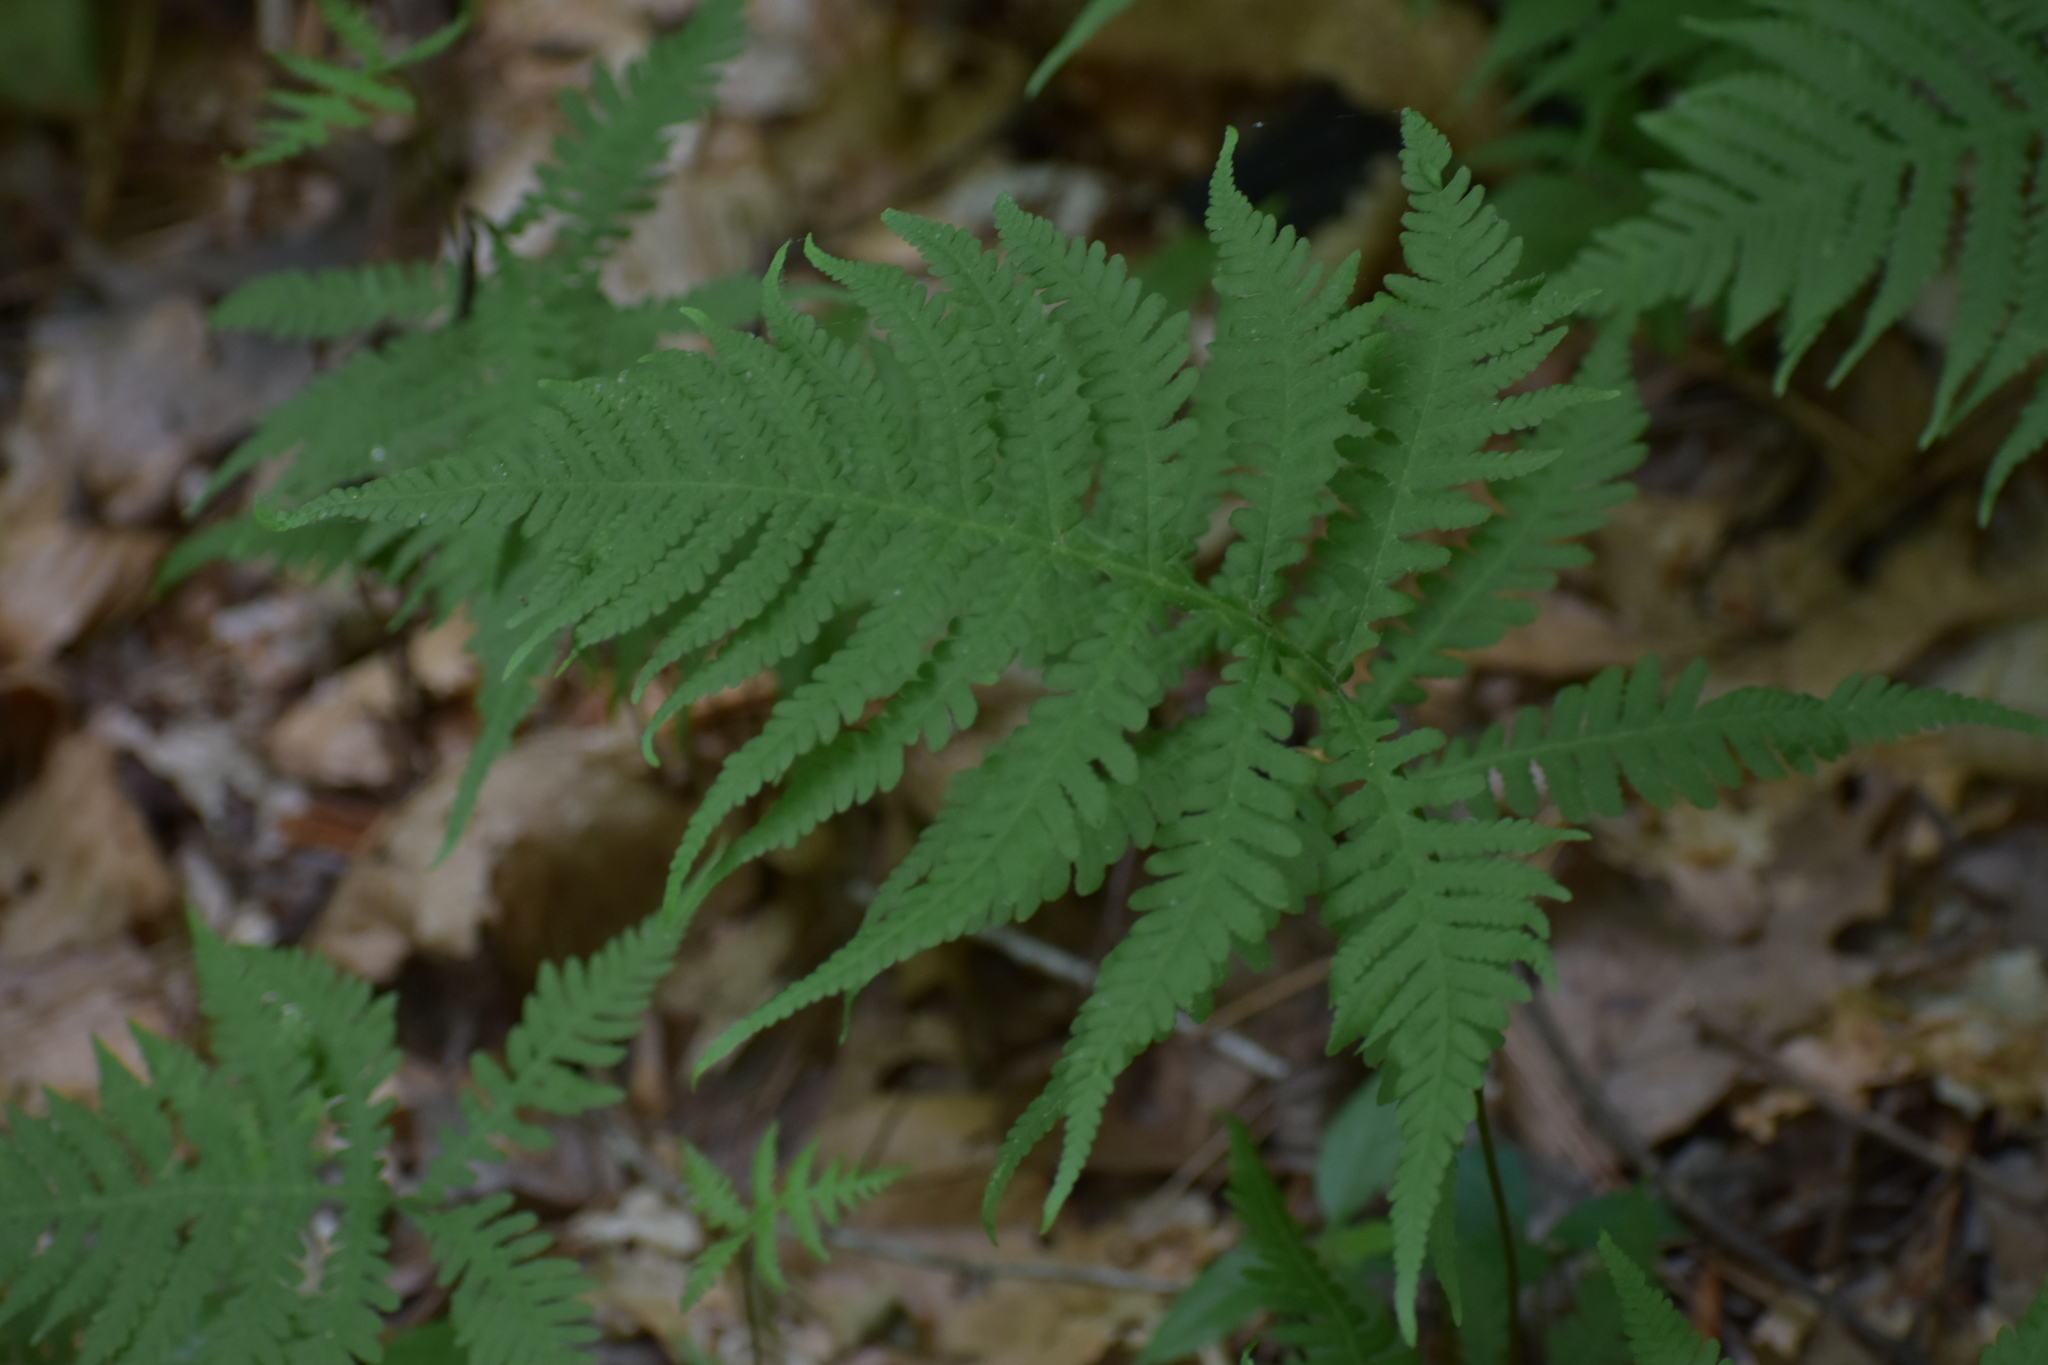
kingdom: Plantae
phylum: Tracheophyta
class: Polypodiopsida
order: Polypodiales
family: Thelypteridaceae
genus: Phegopteris
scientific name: Phegopteris hexagonoptera
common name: Broad beech fern
